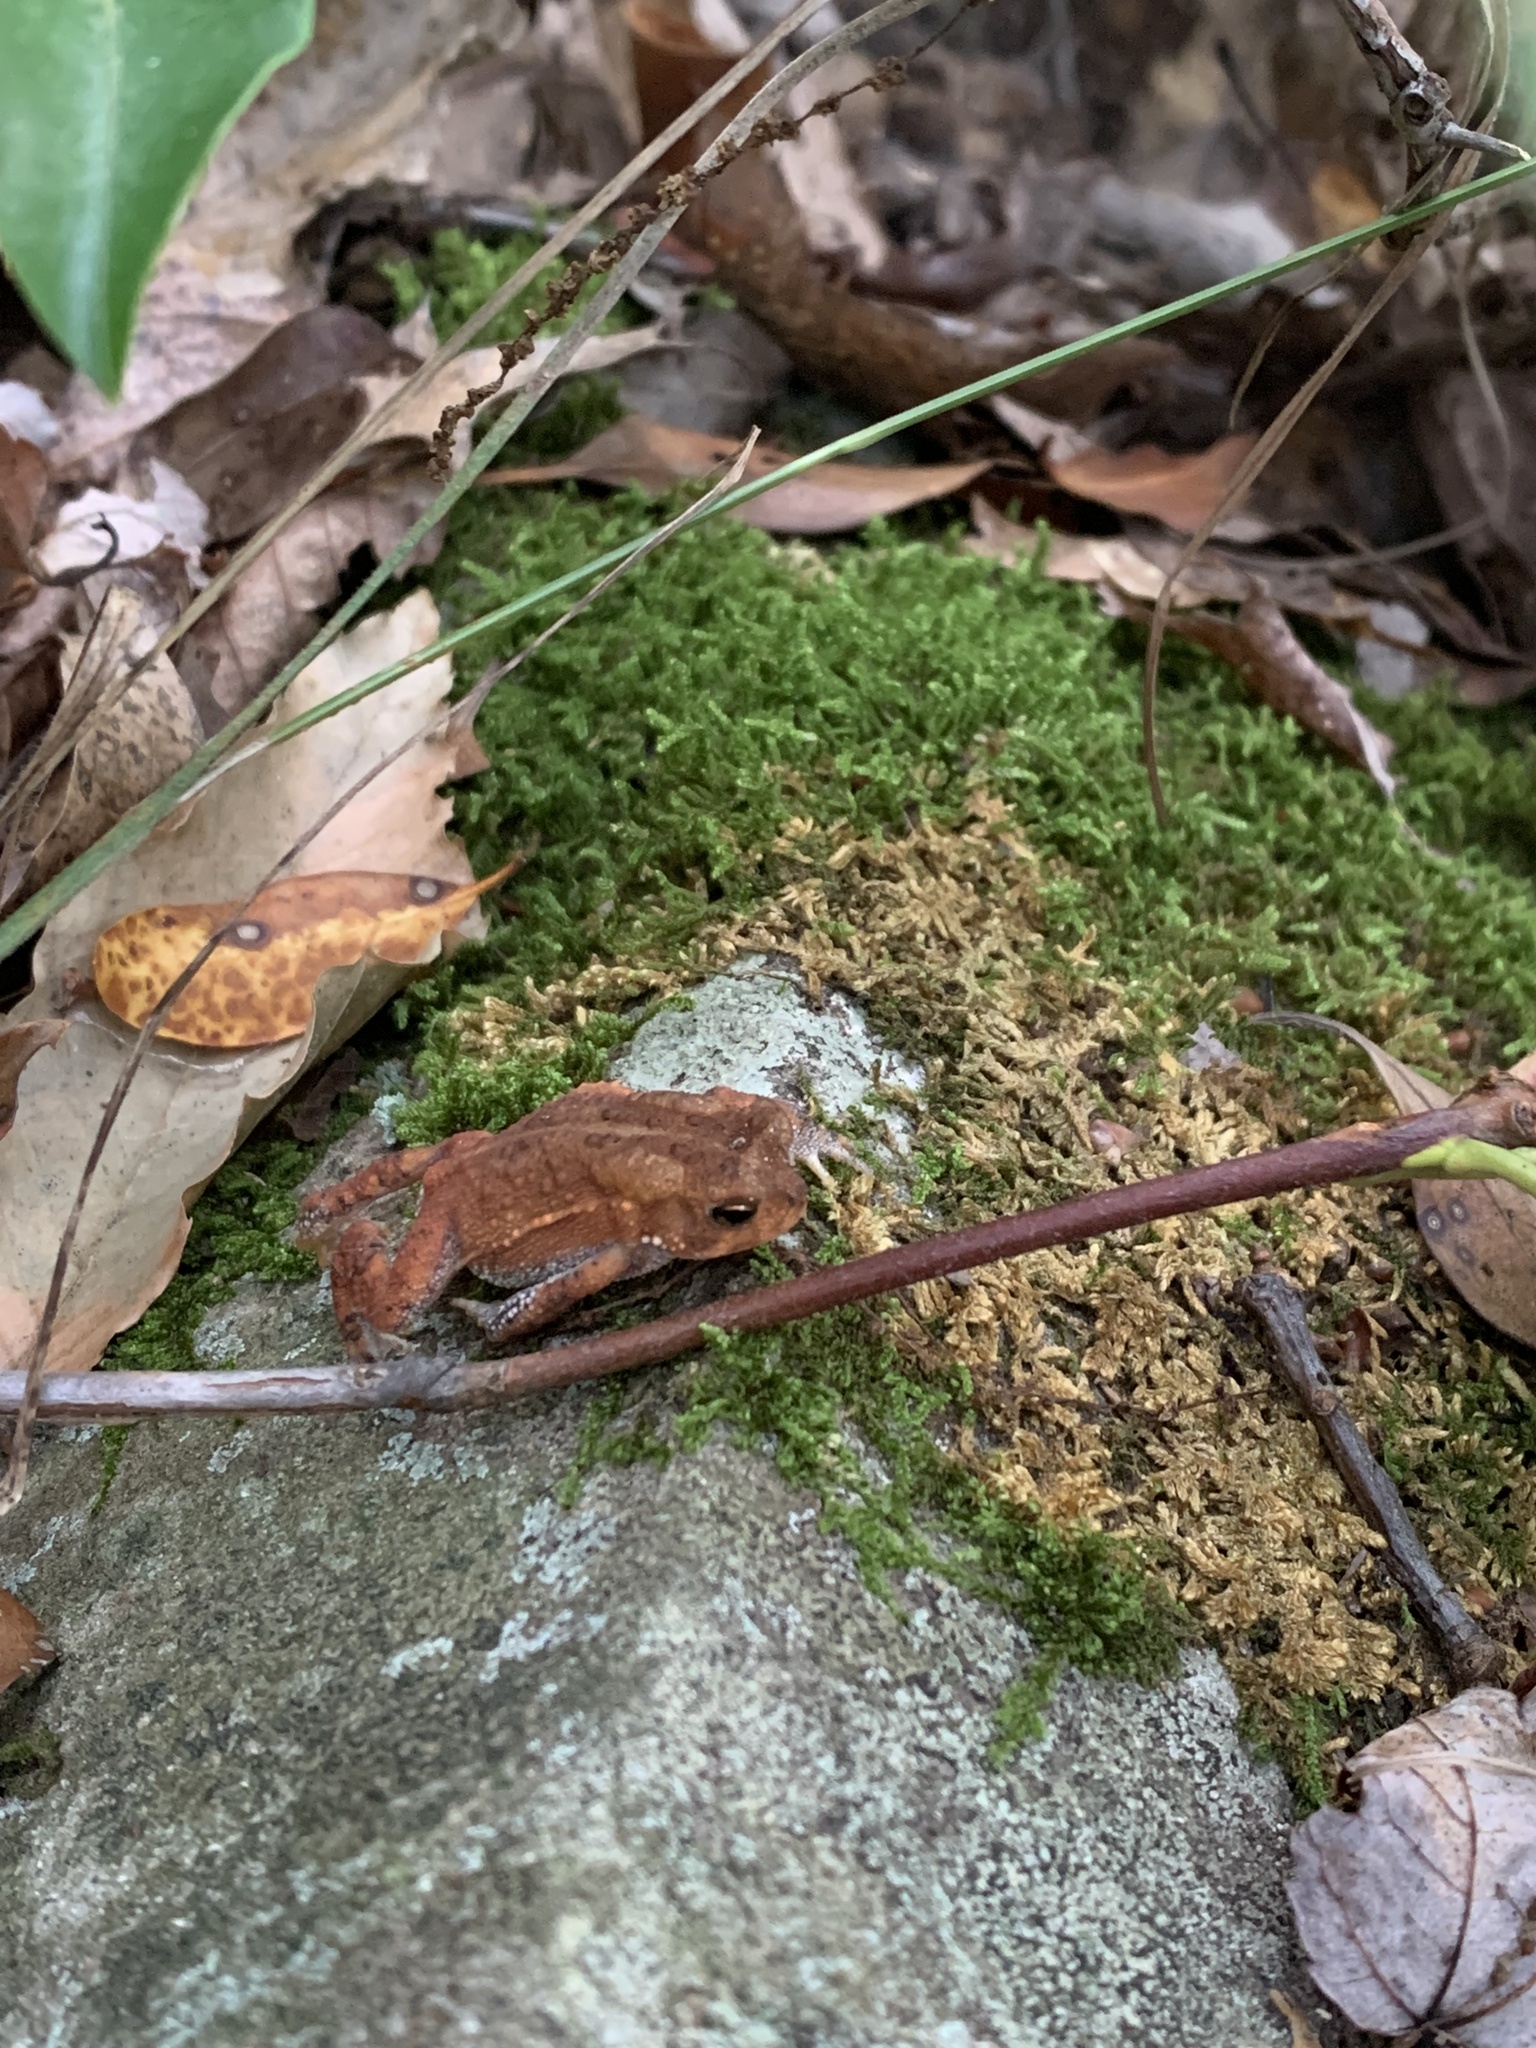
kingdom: Animalia
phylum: Chordata
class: Amphibia
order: Anura
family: Bufonidae
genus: Anaxyrus
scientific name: Anaxyrus americanus
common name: American toad
